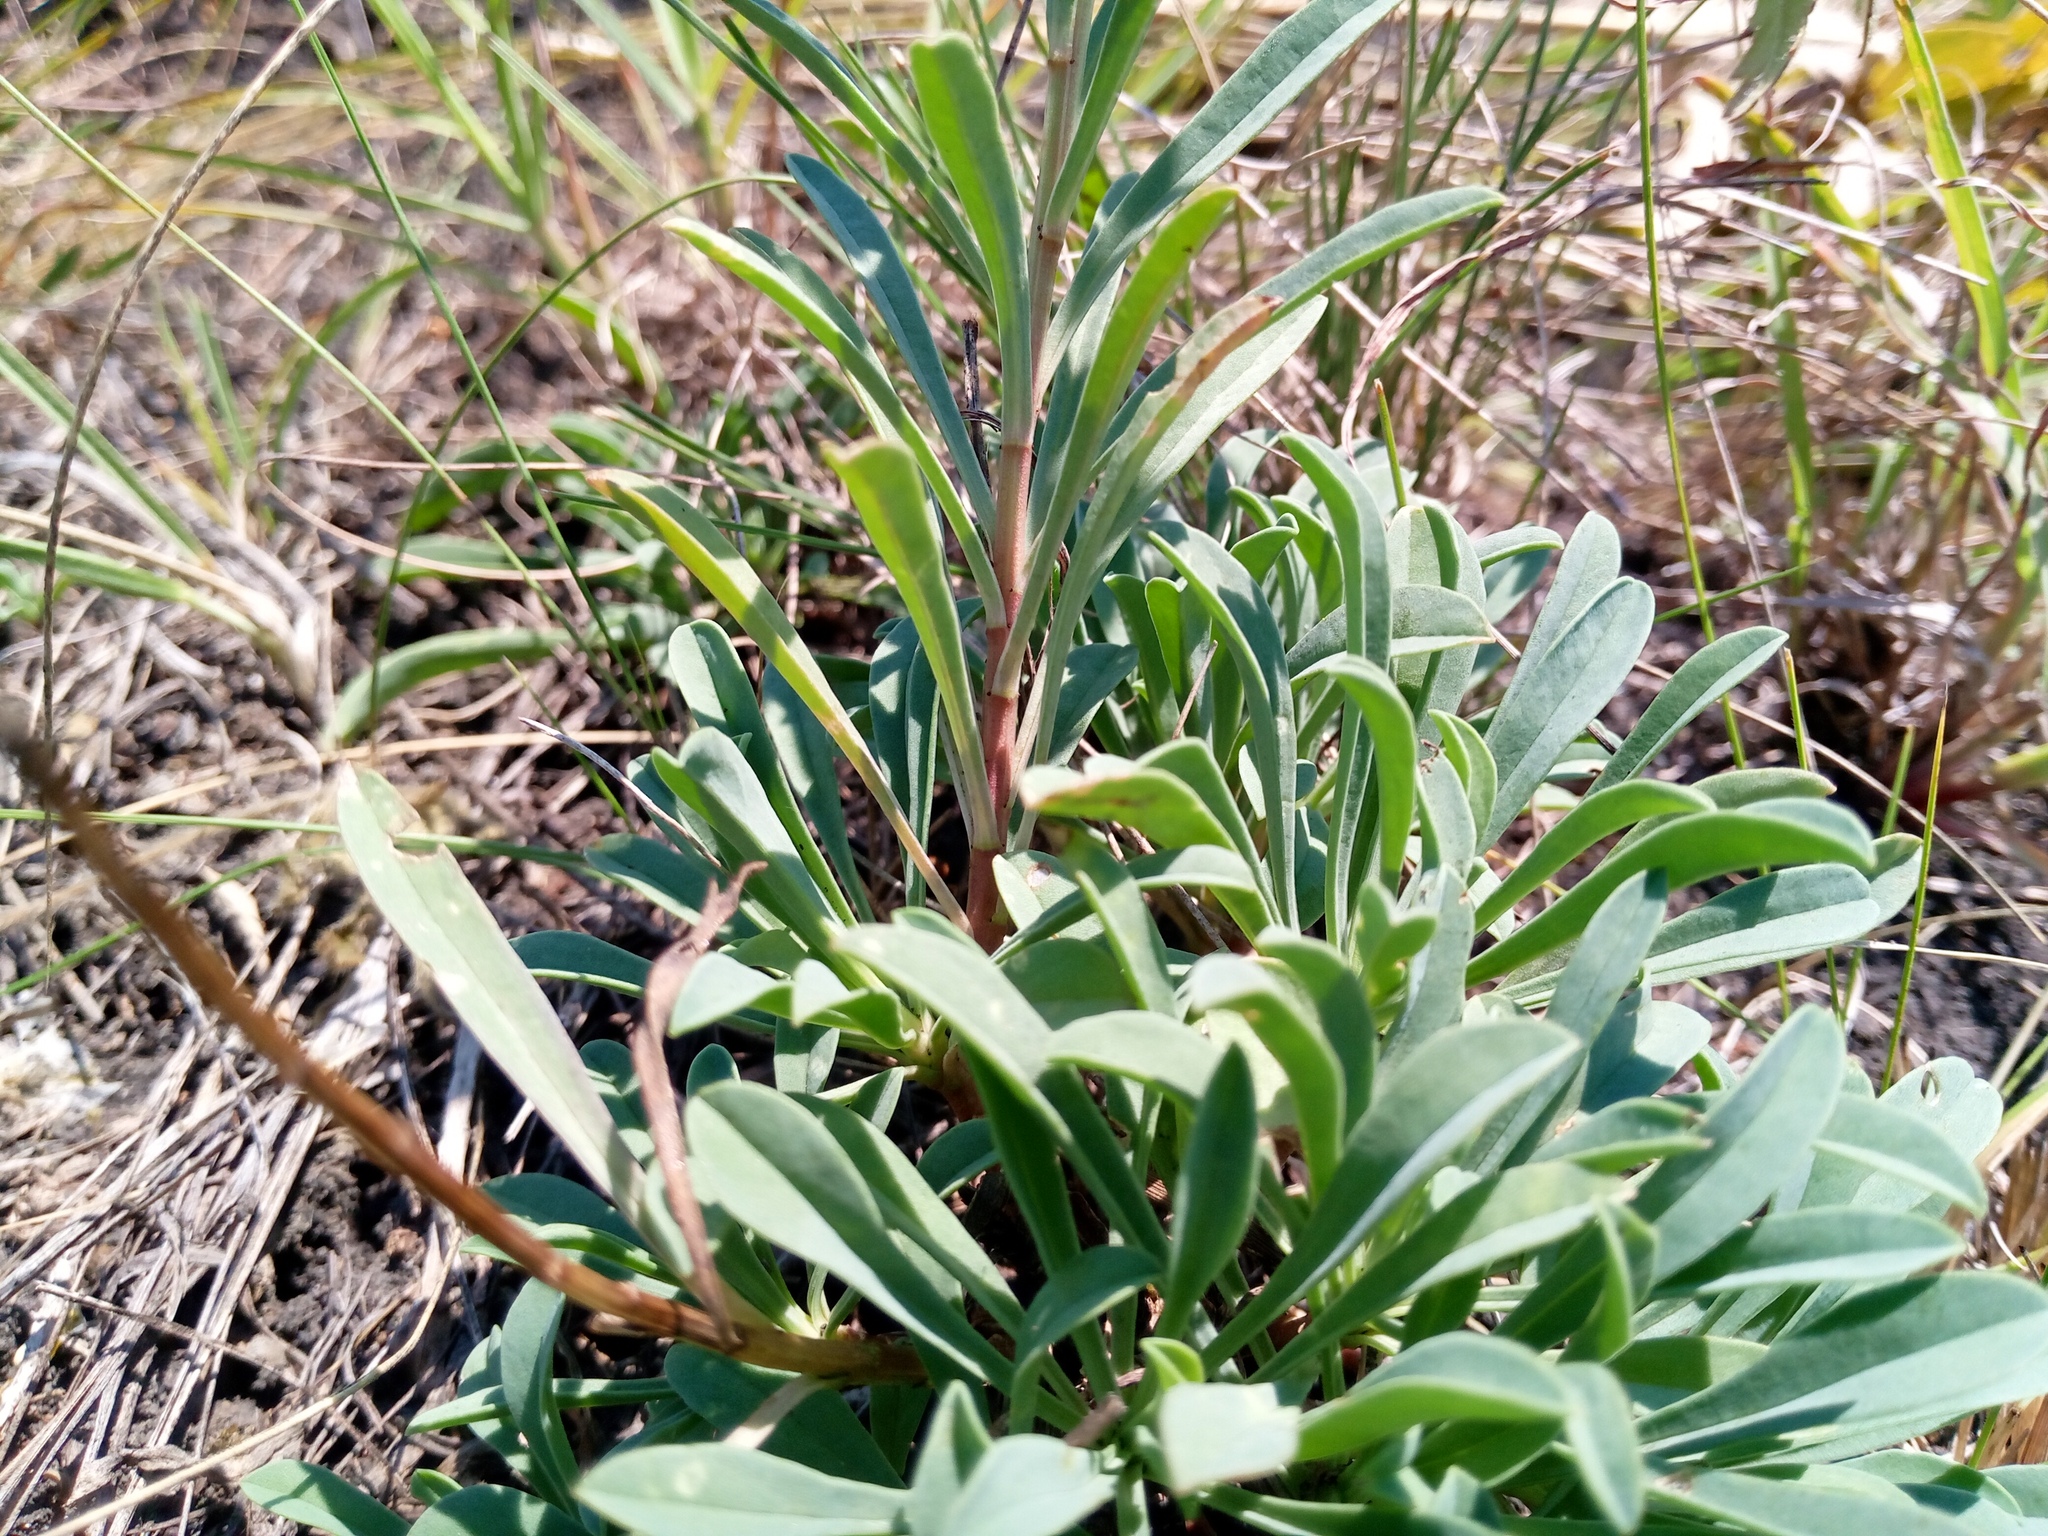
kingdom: Plantae
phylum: Tracheophyta
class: Magnoliopsida
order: Malpighiales
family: Linaceae
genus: Linum
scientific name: Linum flavum
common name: Yellow flax
